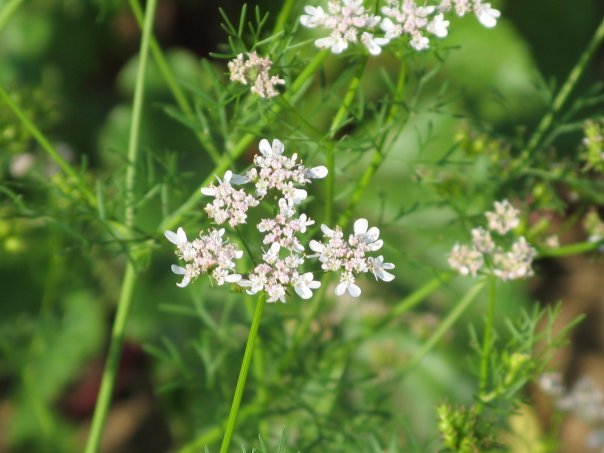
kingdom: Plantae
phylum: Tracheophyta
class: Magnoliopsida
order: Apiales
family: Apiaceae
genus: Coriandrum
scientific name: Coriandrum sativum
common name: Coriander
